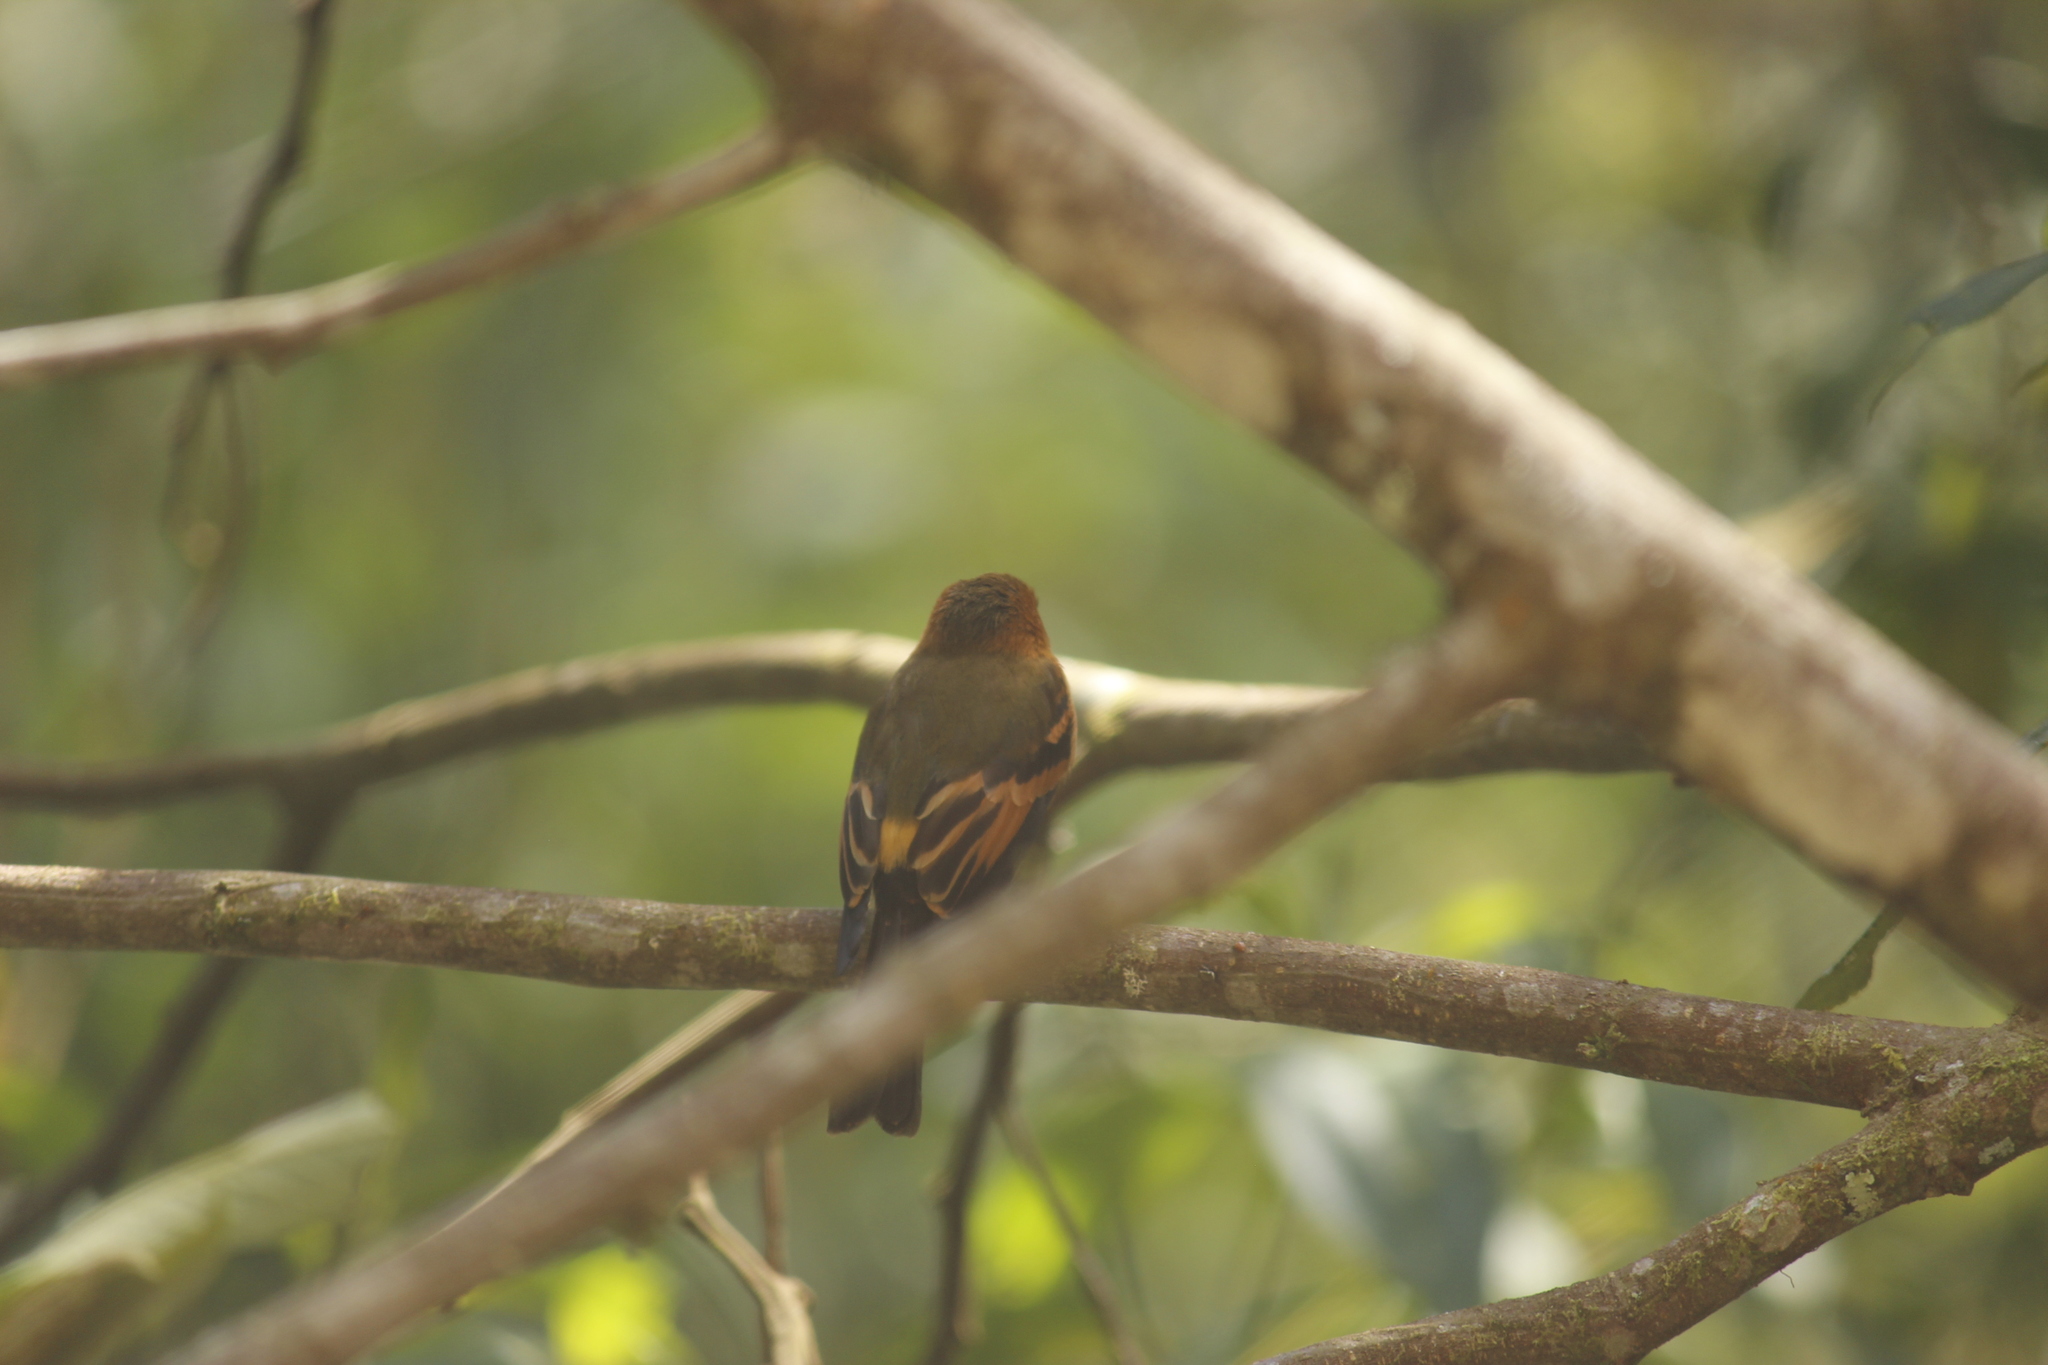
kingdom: Animalia
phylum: Chordata
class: Aves
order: Passeriformes
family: Tyrannidae
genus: Pyrrhomyias
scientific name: Pyrrhomyias cinnamomeus
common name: Cinnamon flycatcher
